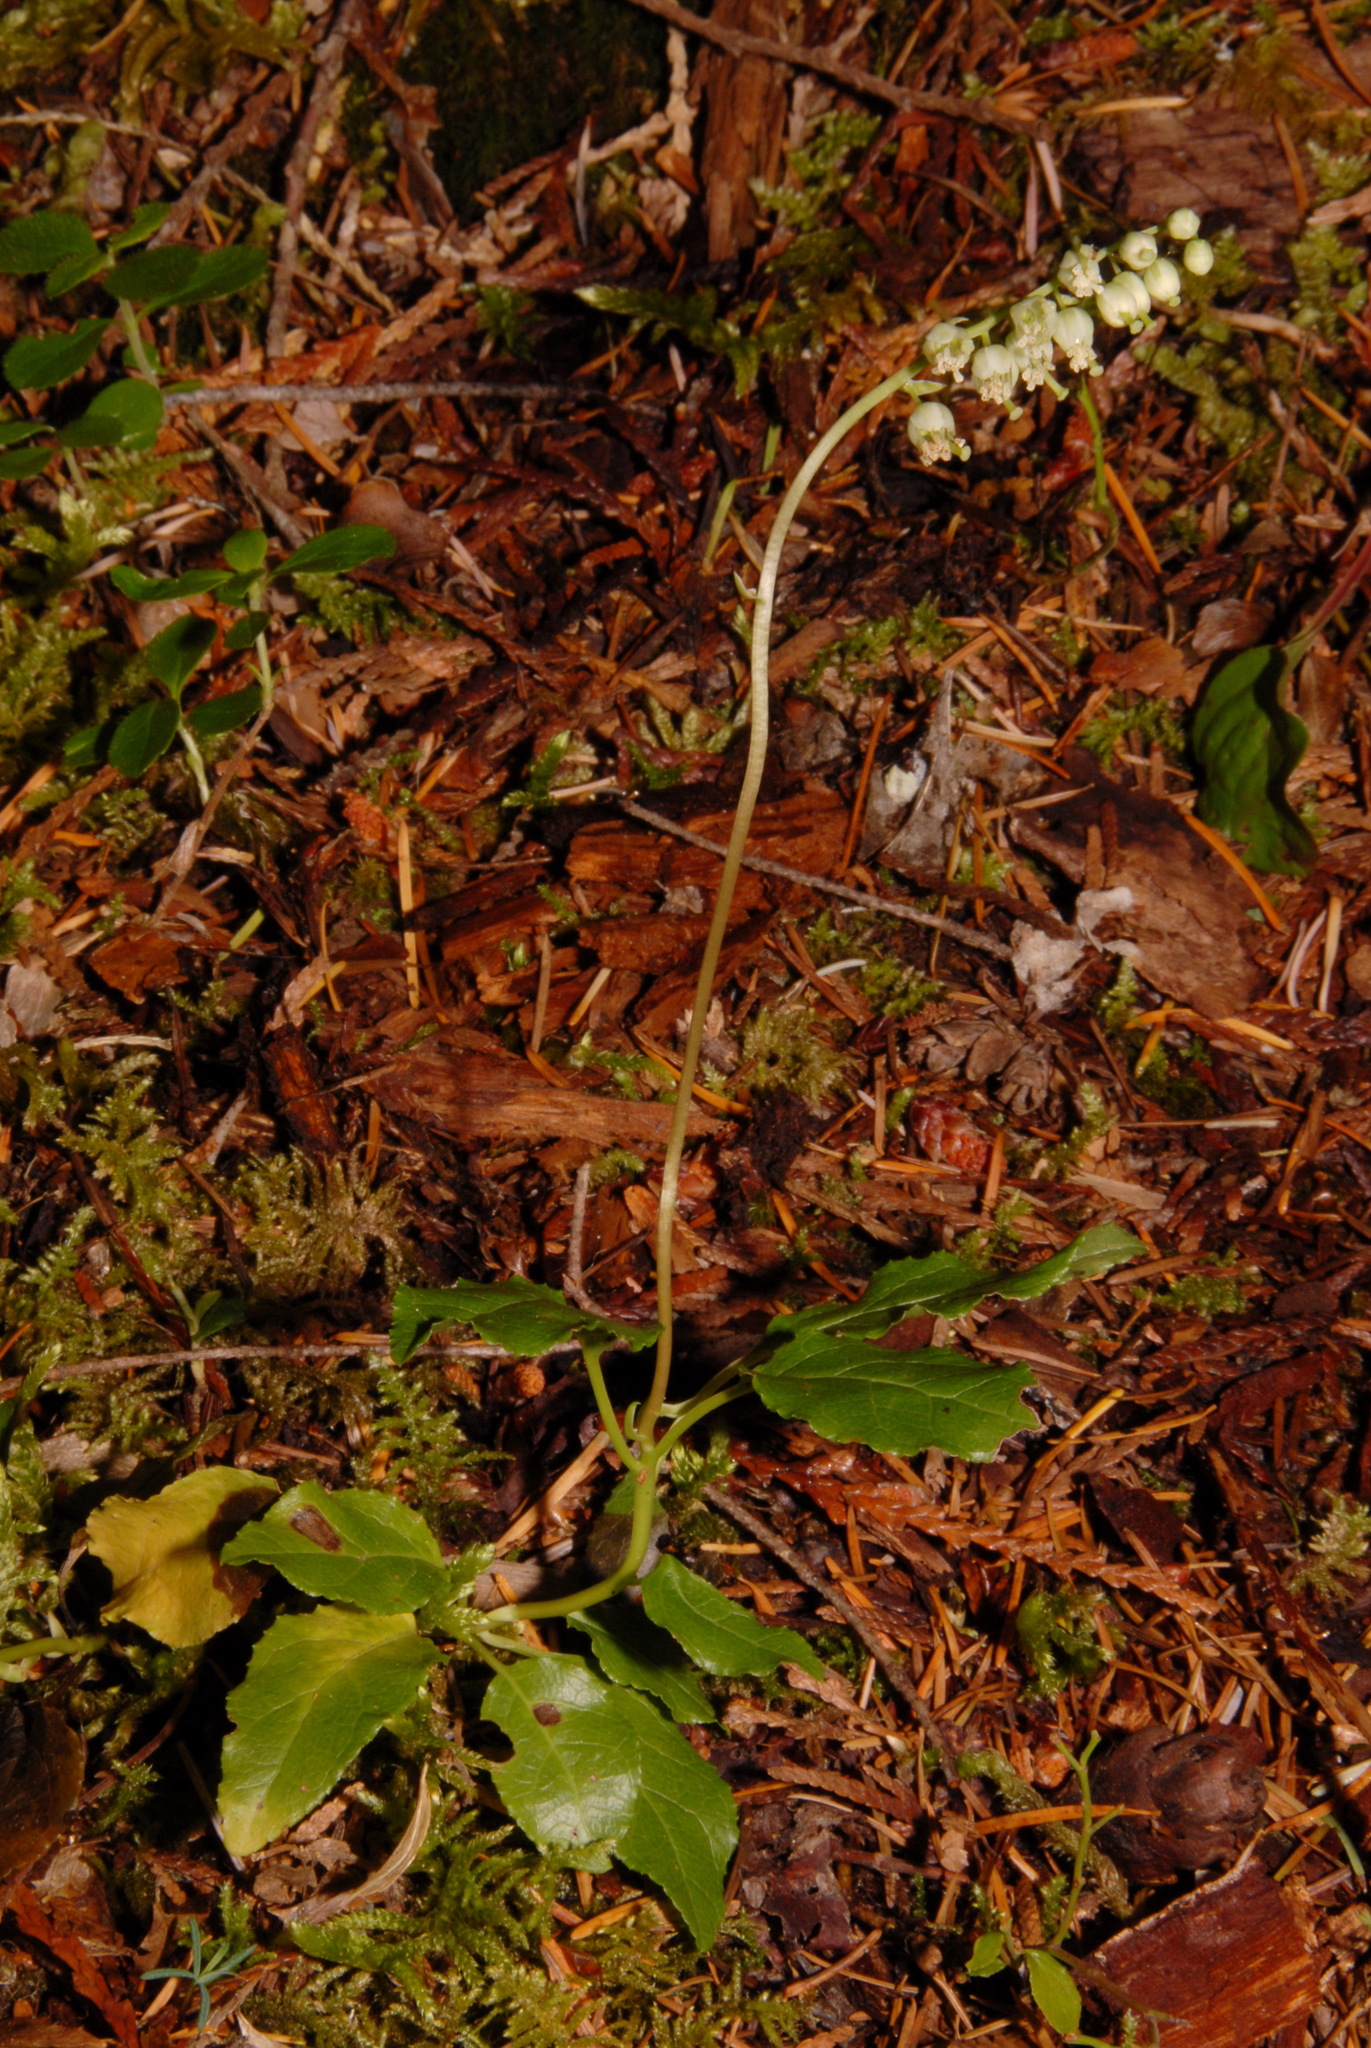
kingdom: Plantae
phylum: Tracheophyta
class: Magnoliopsida
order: Ericales
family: Ericaceae
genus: Orthilia
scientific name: Orthilia secunda
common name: One-sided orthilia
